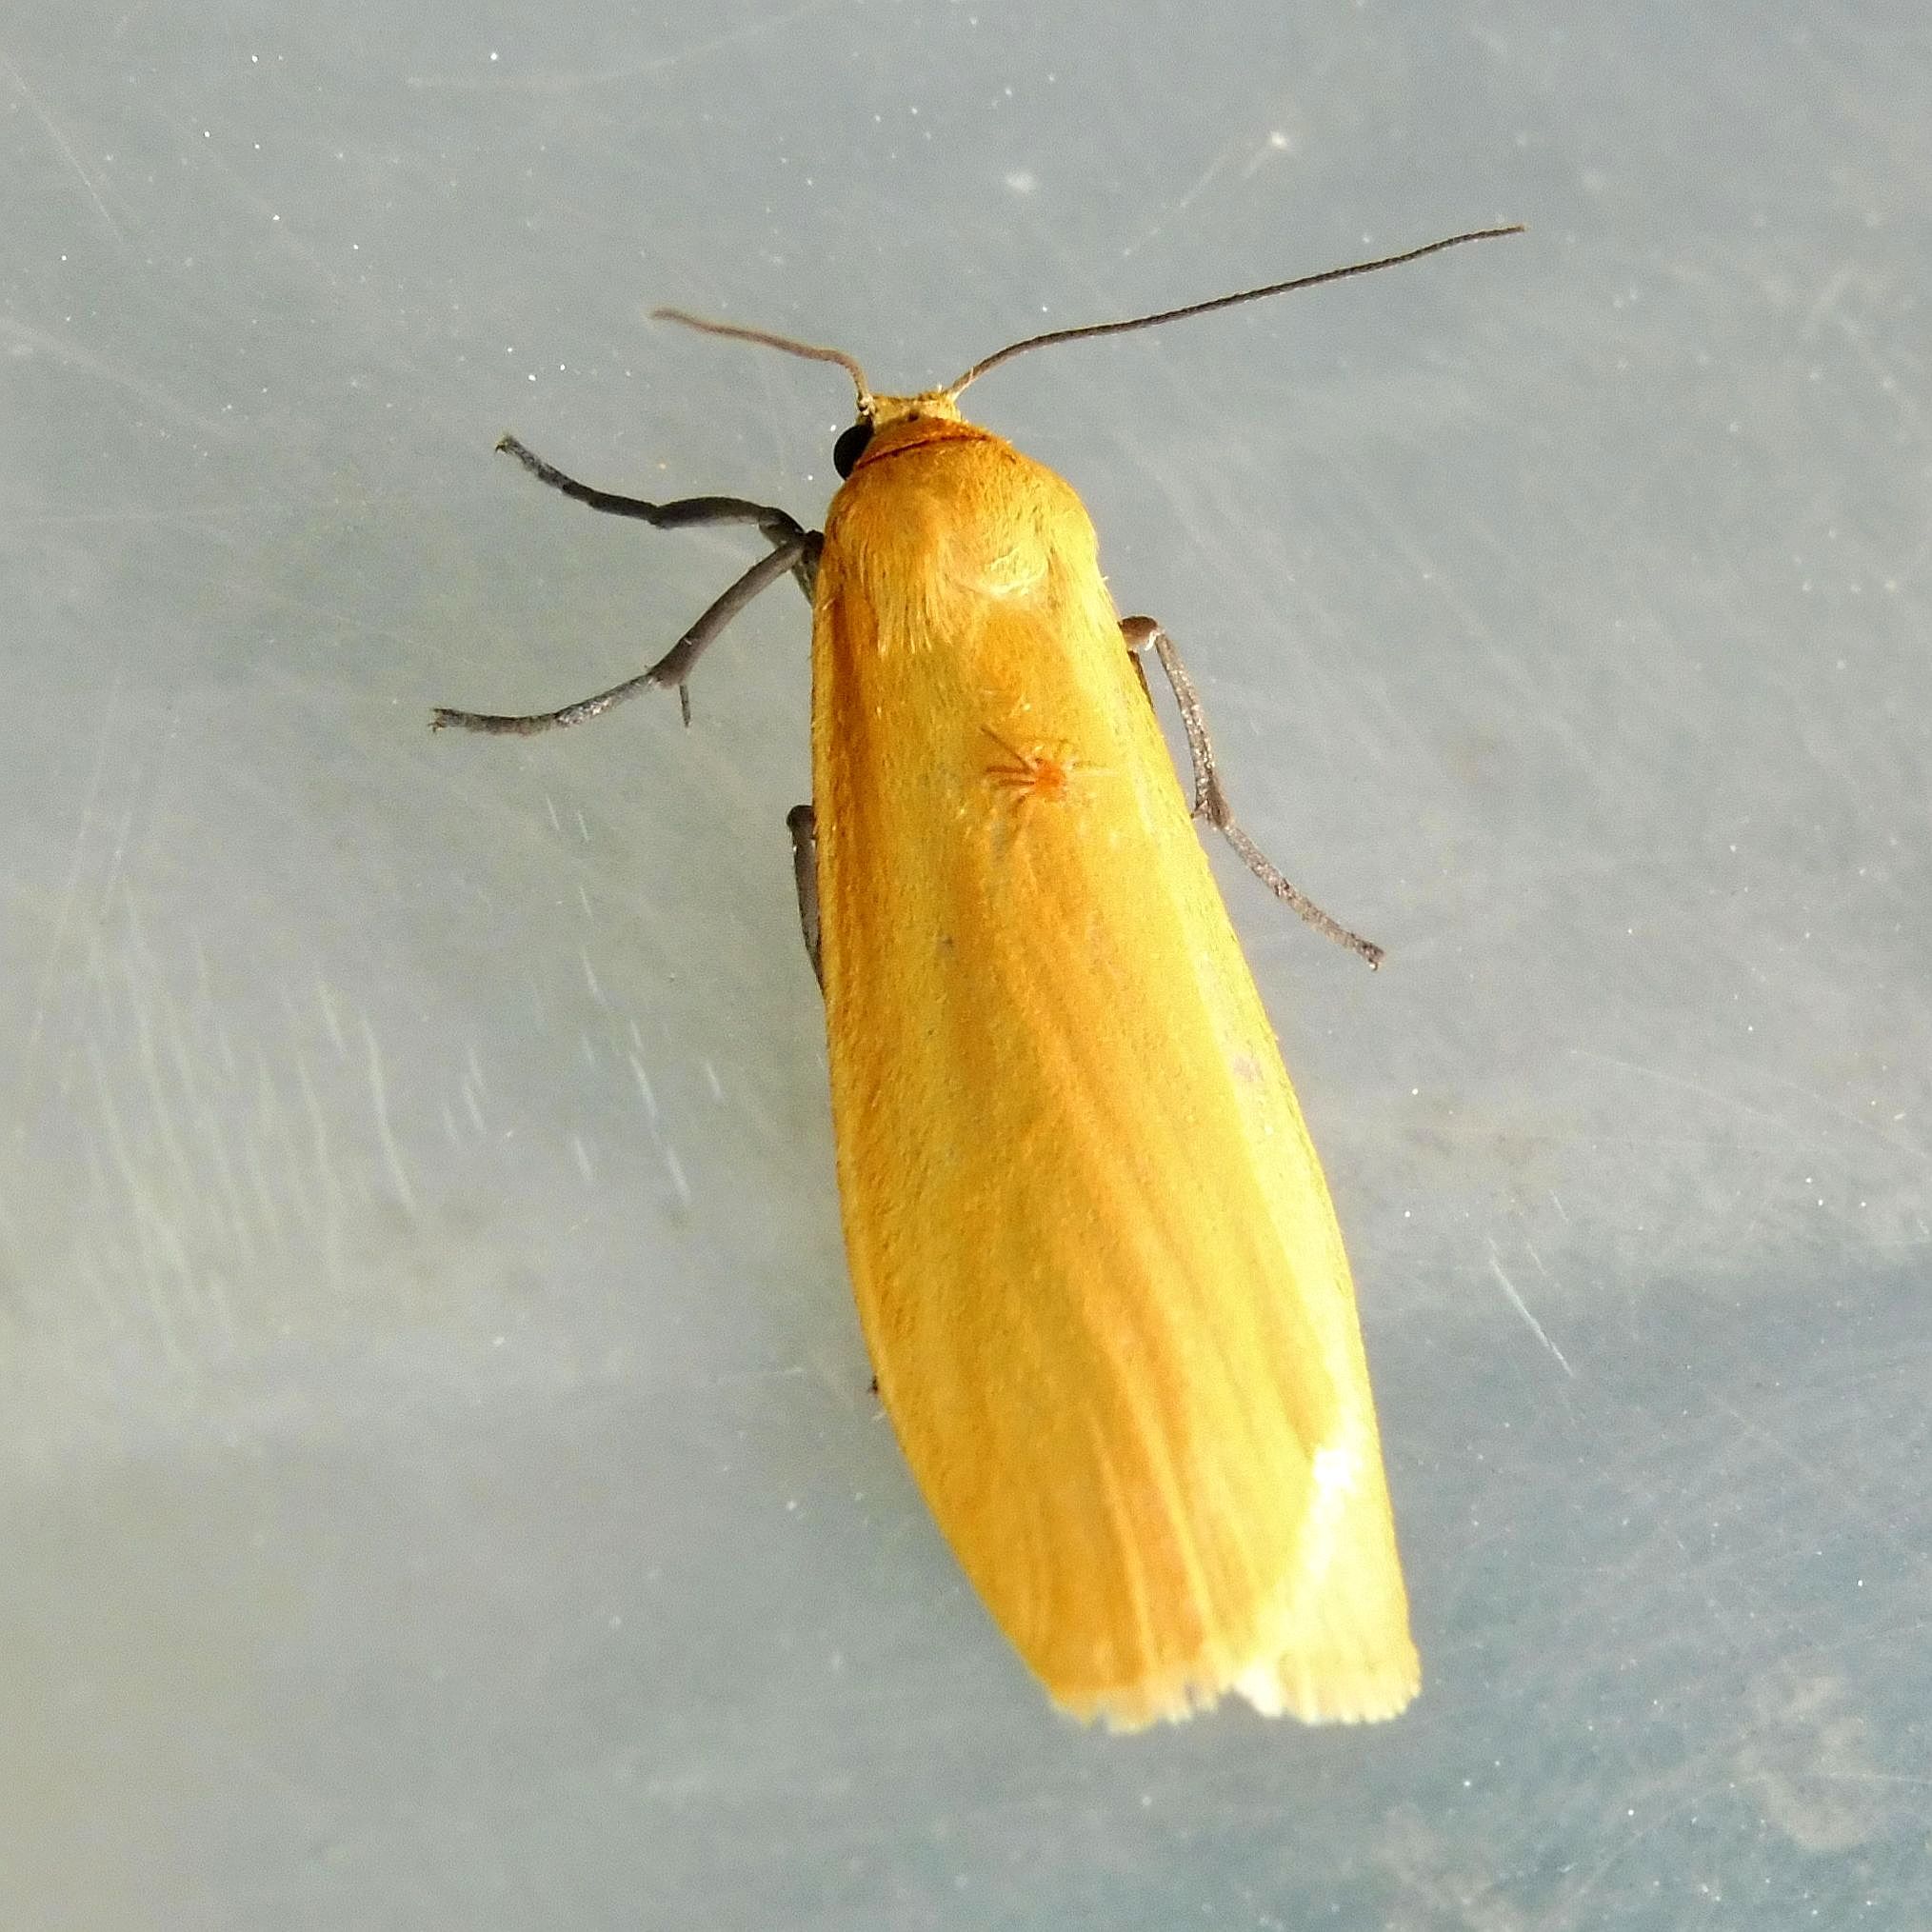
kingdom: Animalia
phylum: Arthropoda
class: Insecta
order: Lepidoptera
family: Erebidae
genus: Wittia
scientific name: Wittia sororcula
